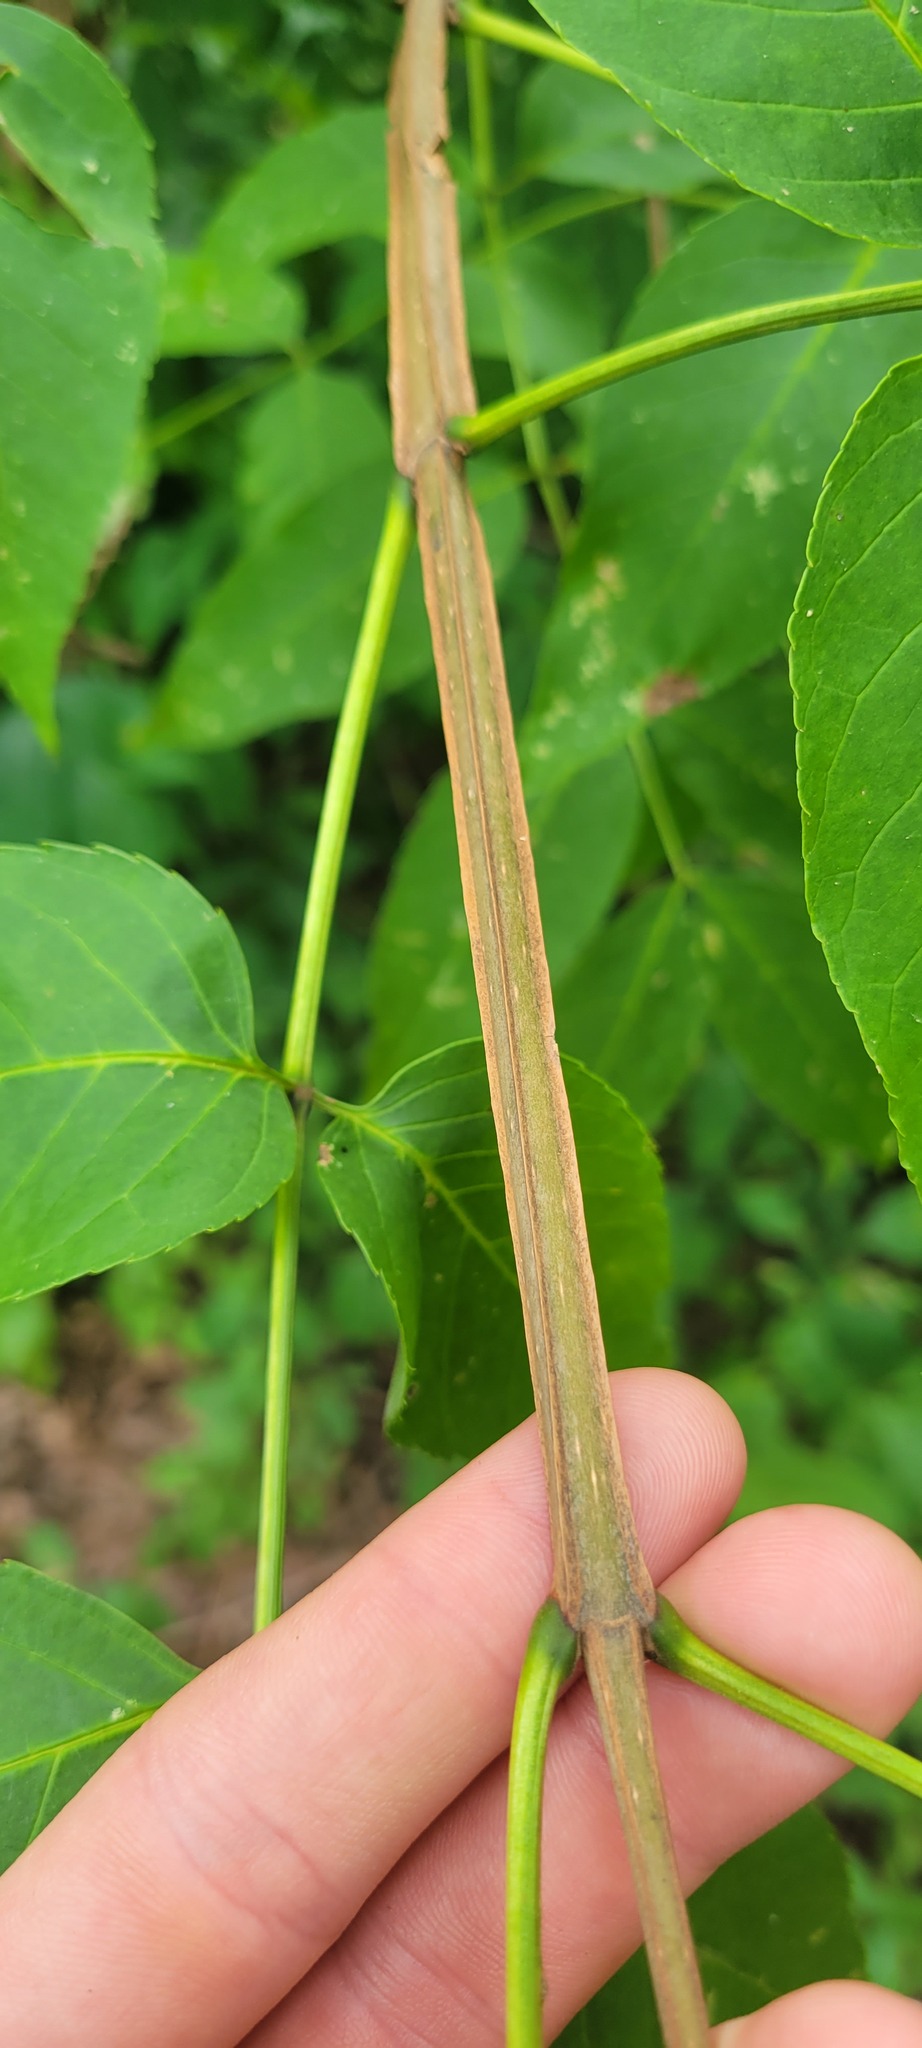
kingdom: Plantae
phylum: Tracheophyta
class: Magnoliopsida
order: Lamiales
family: Oleaceae
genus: Fraxinus
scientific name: Fraxinus quadrangulata
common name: Blue ash
